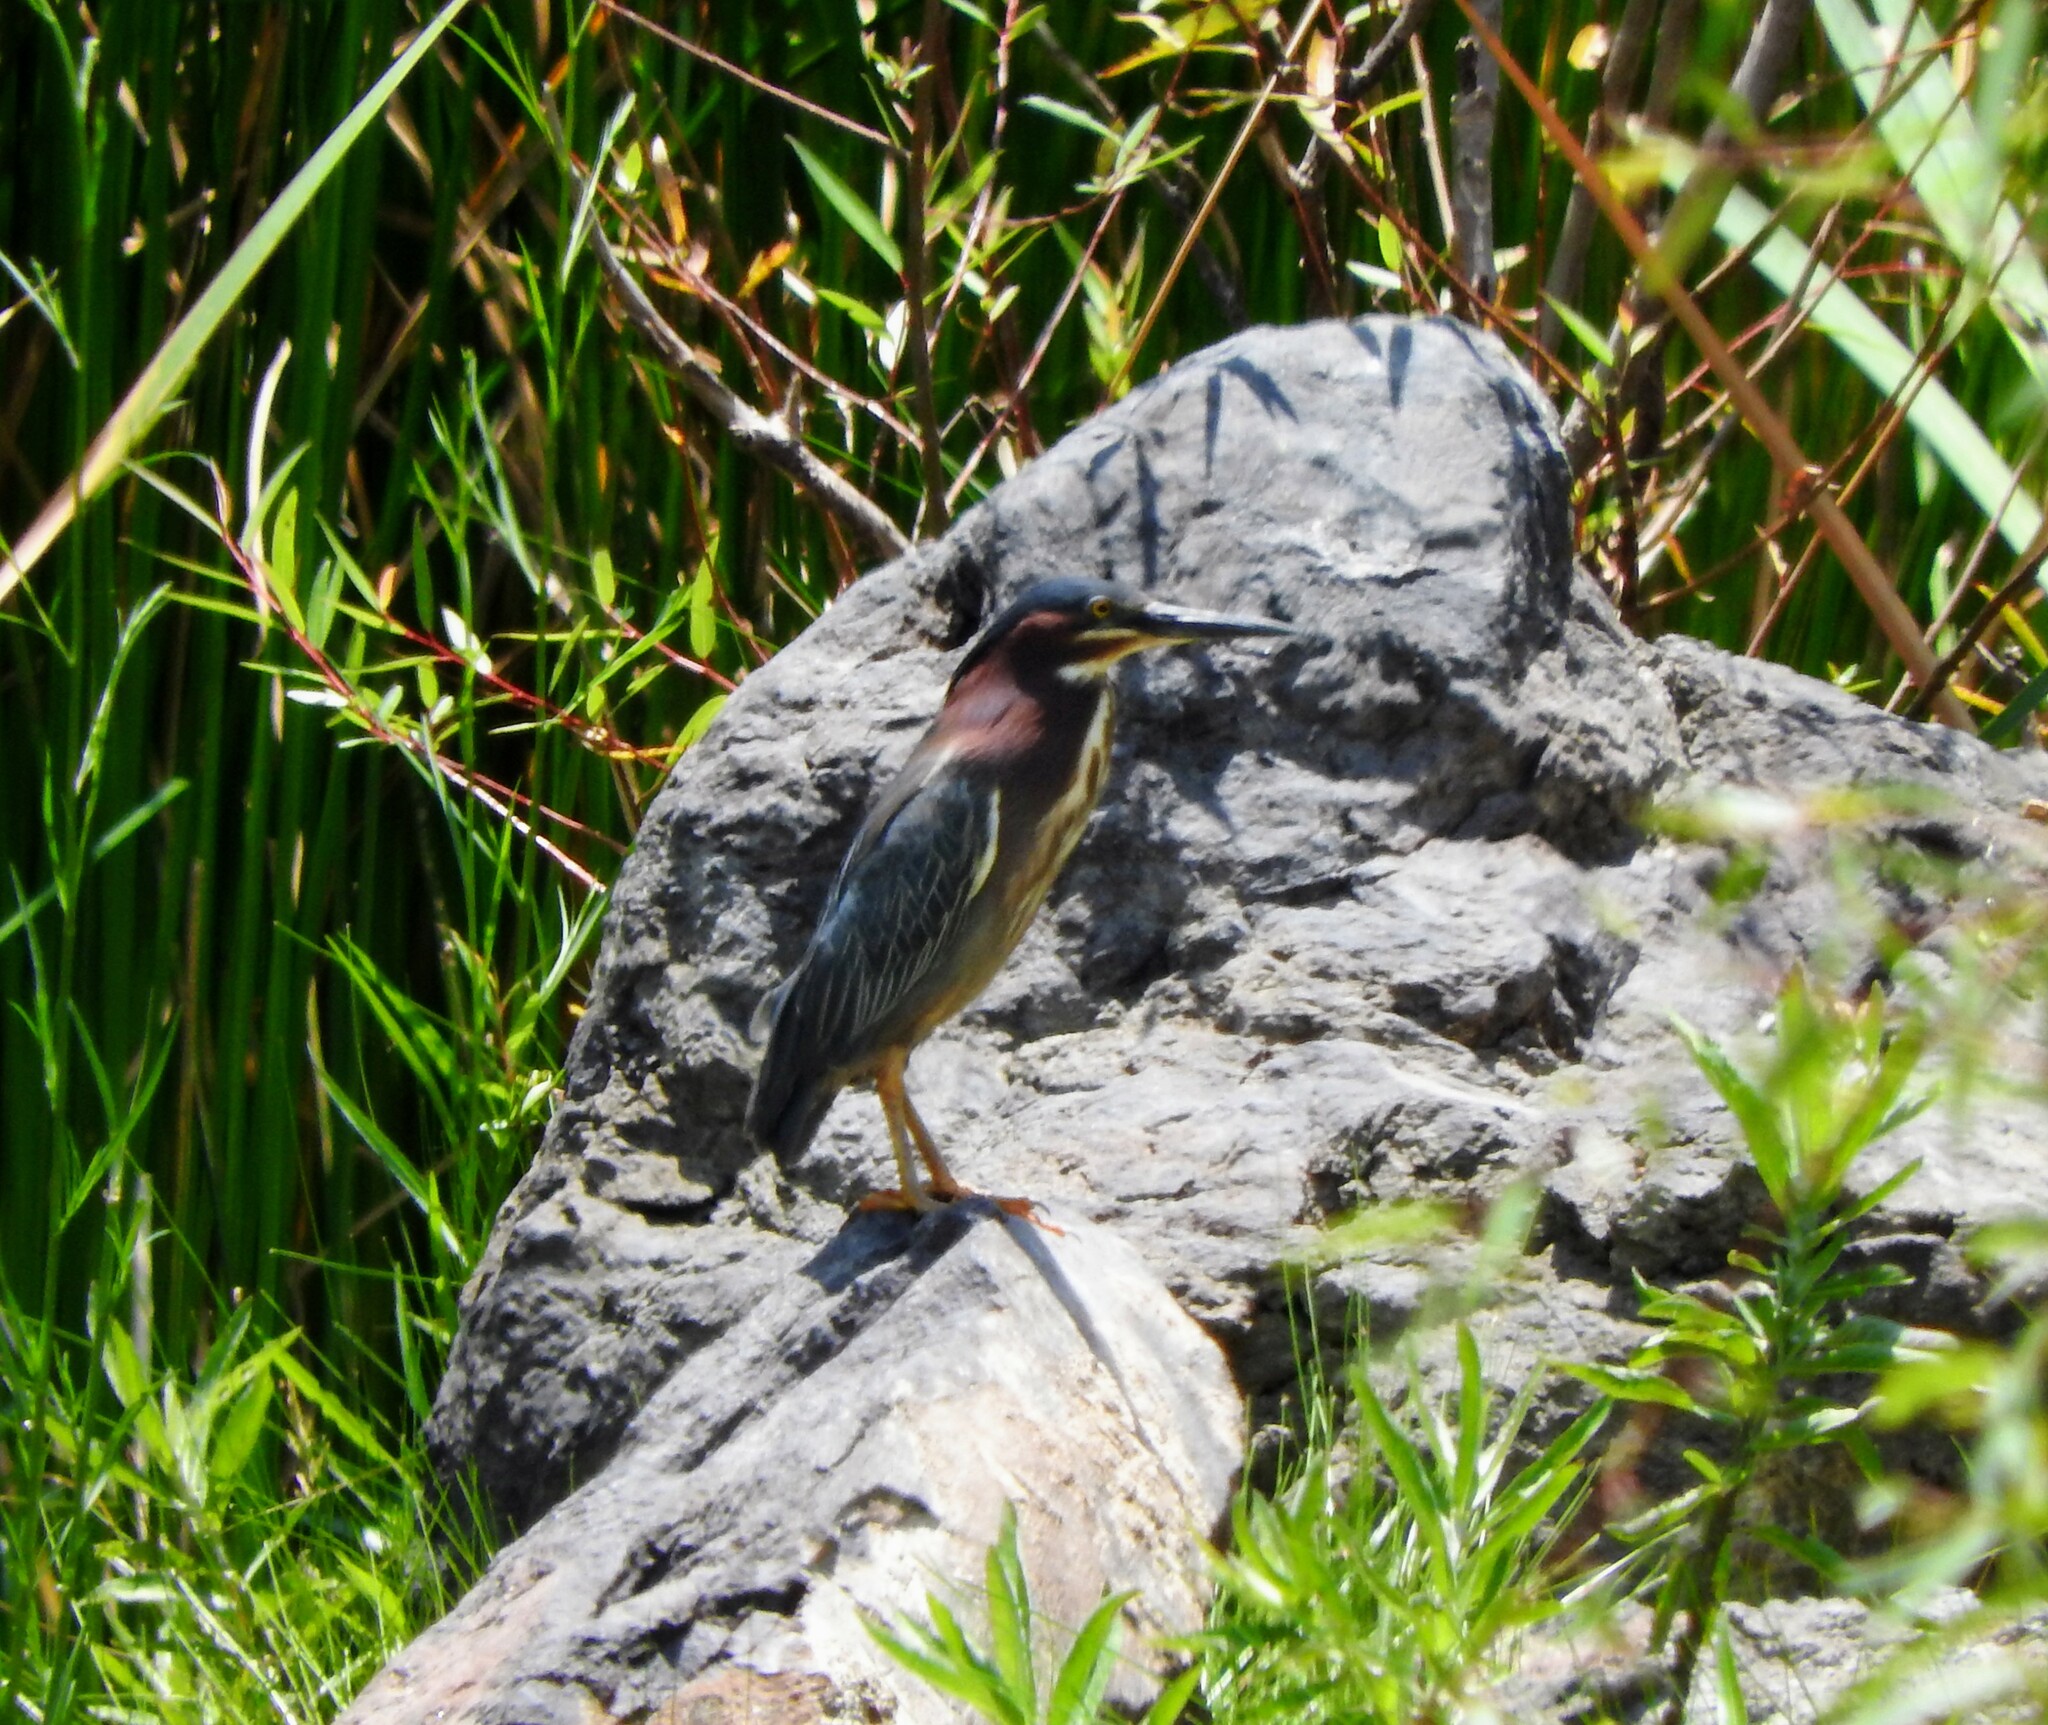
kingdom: Animalia
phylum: Chordata
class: Aves
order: Pelecaniformes
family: Ardeidae
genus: Butorides
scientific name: Butorides virescens
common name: Green heron
